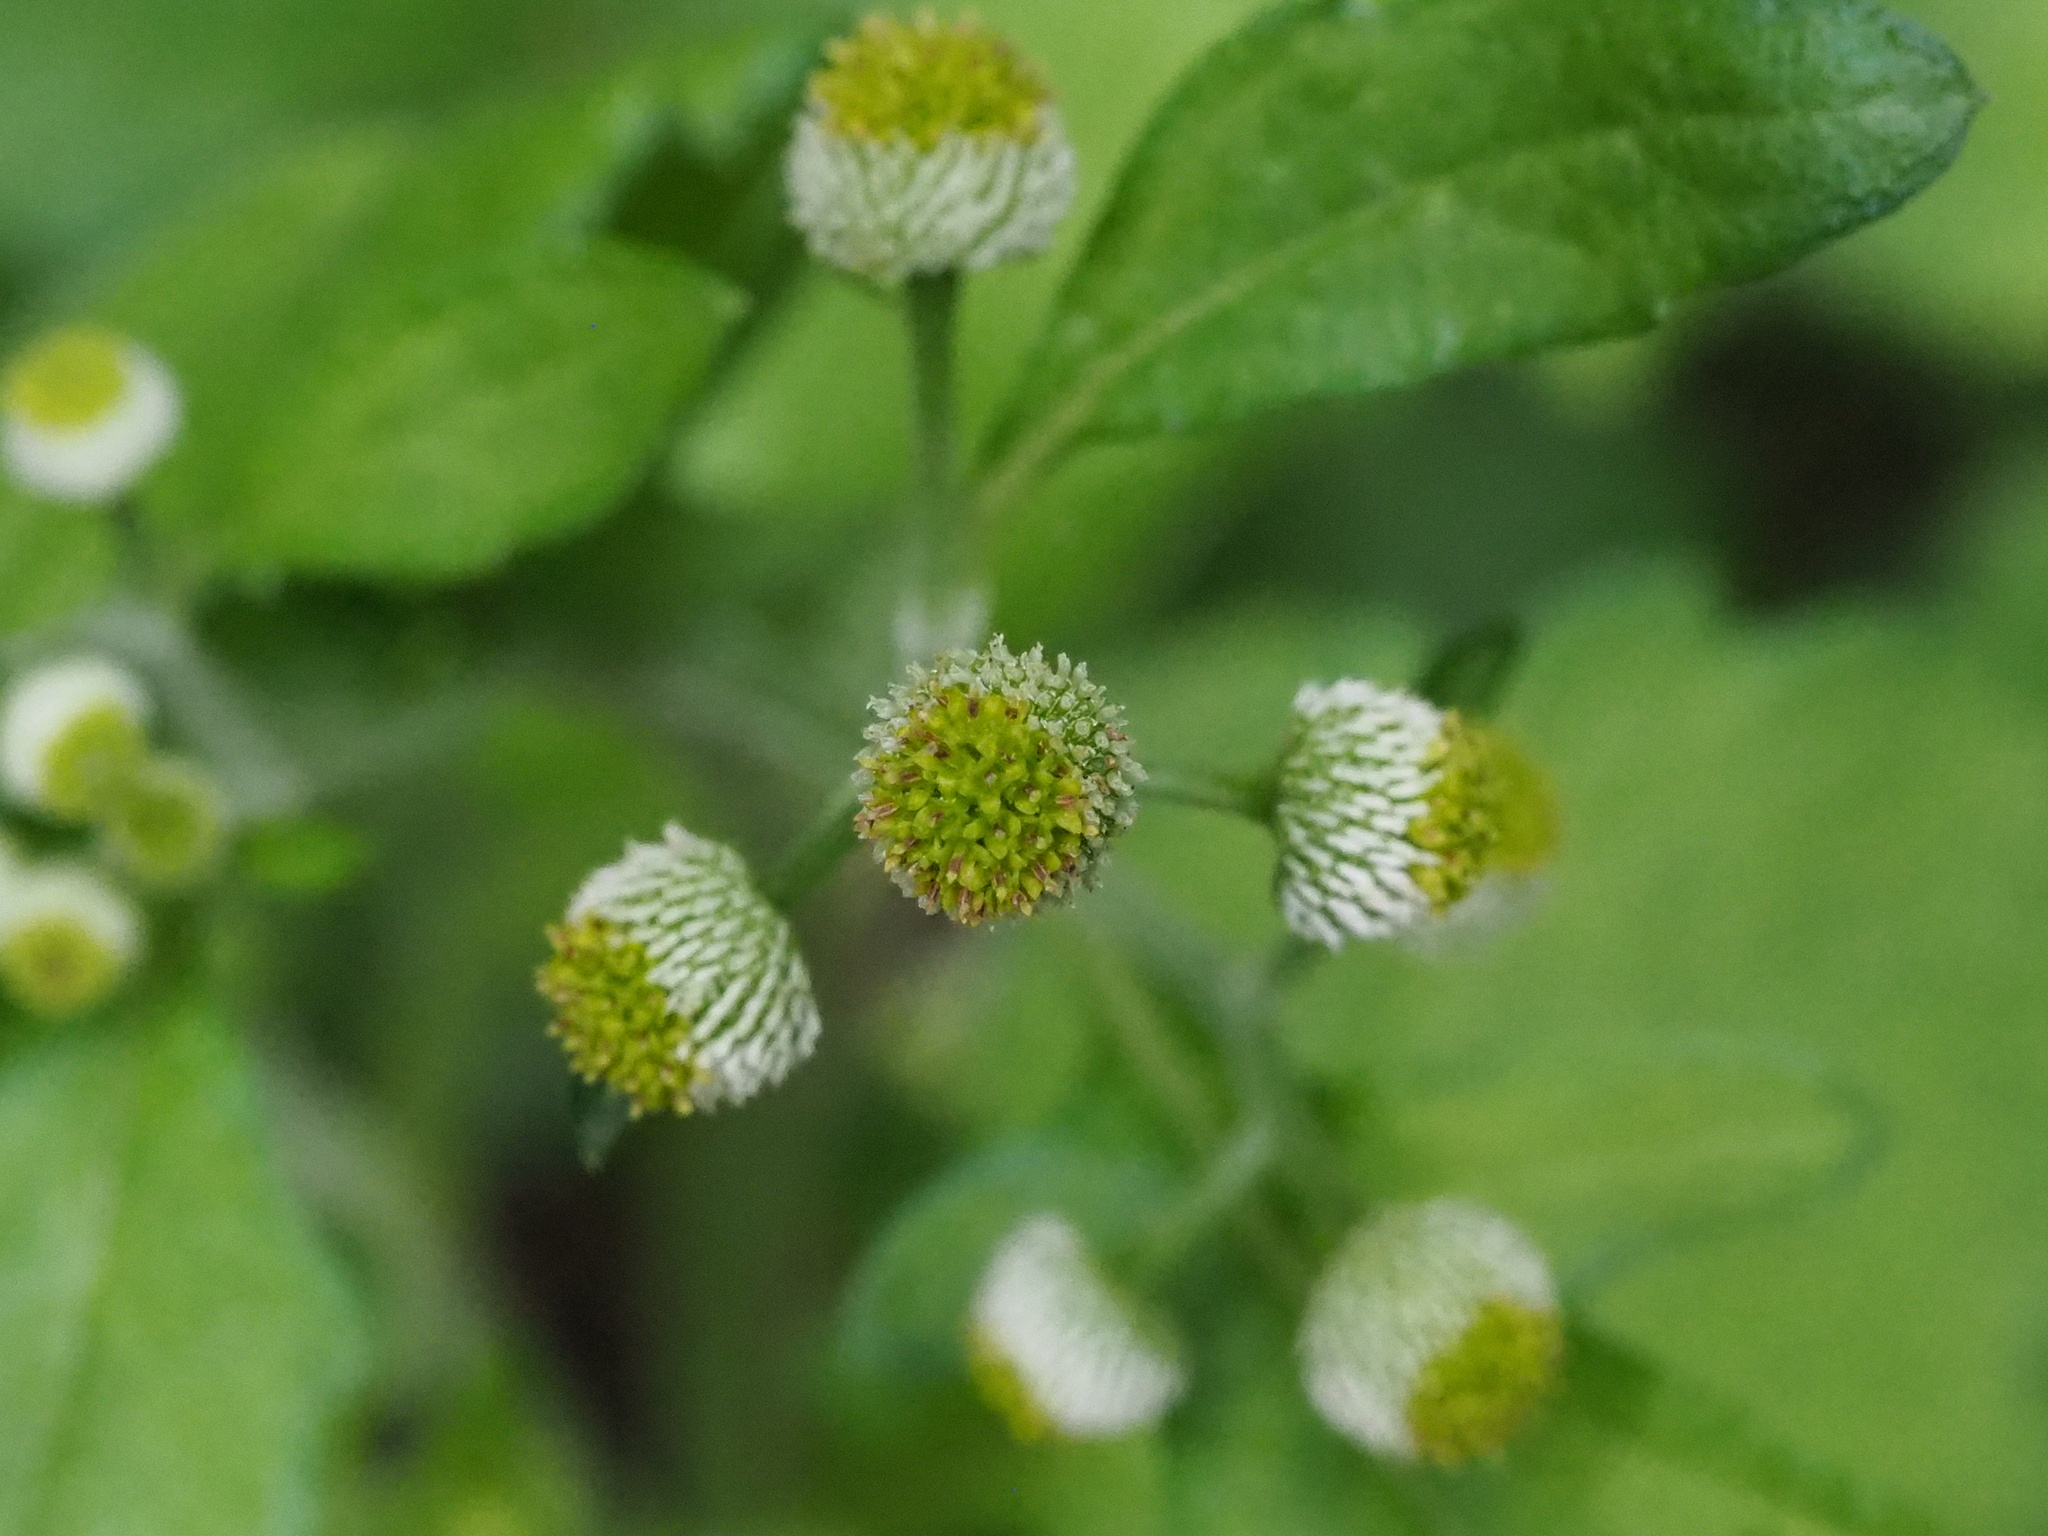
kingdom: Plantae
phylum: Tracheophyta
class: Magnoliopsida
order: Asterales
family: Asteraceae
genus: Dichrocephala
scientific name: Dichrocephala integrifolia
